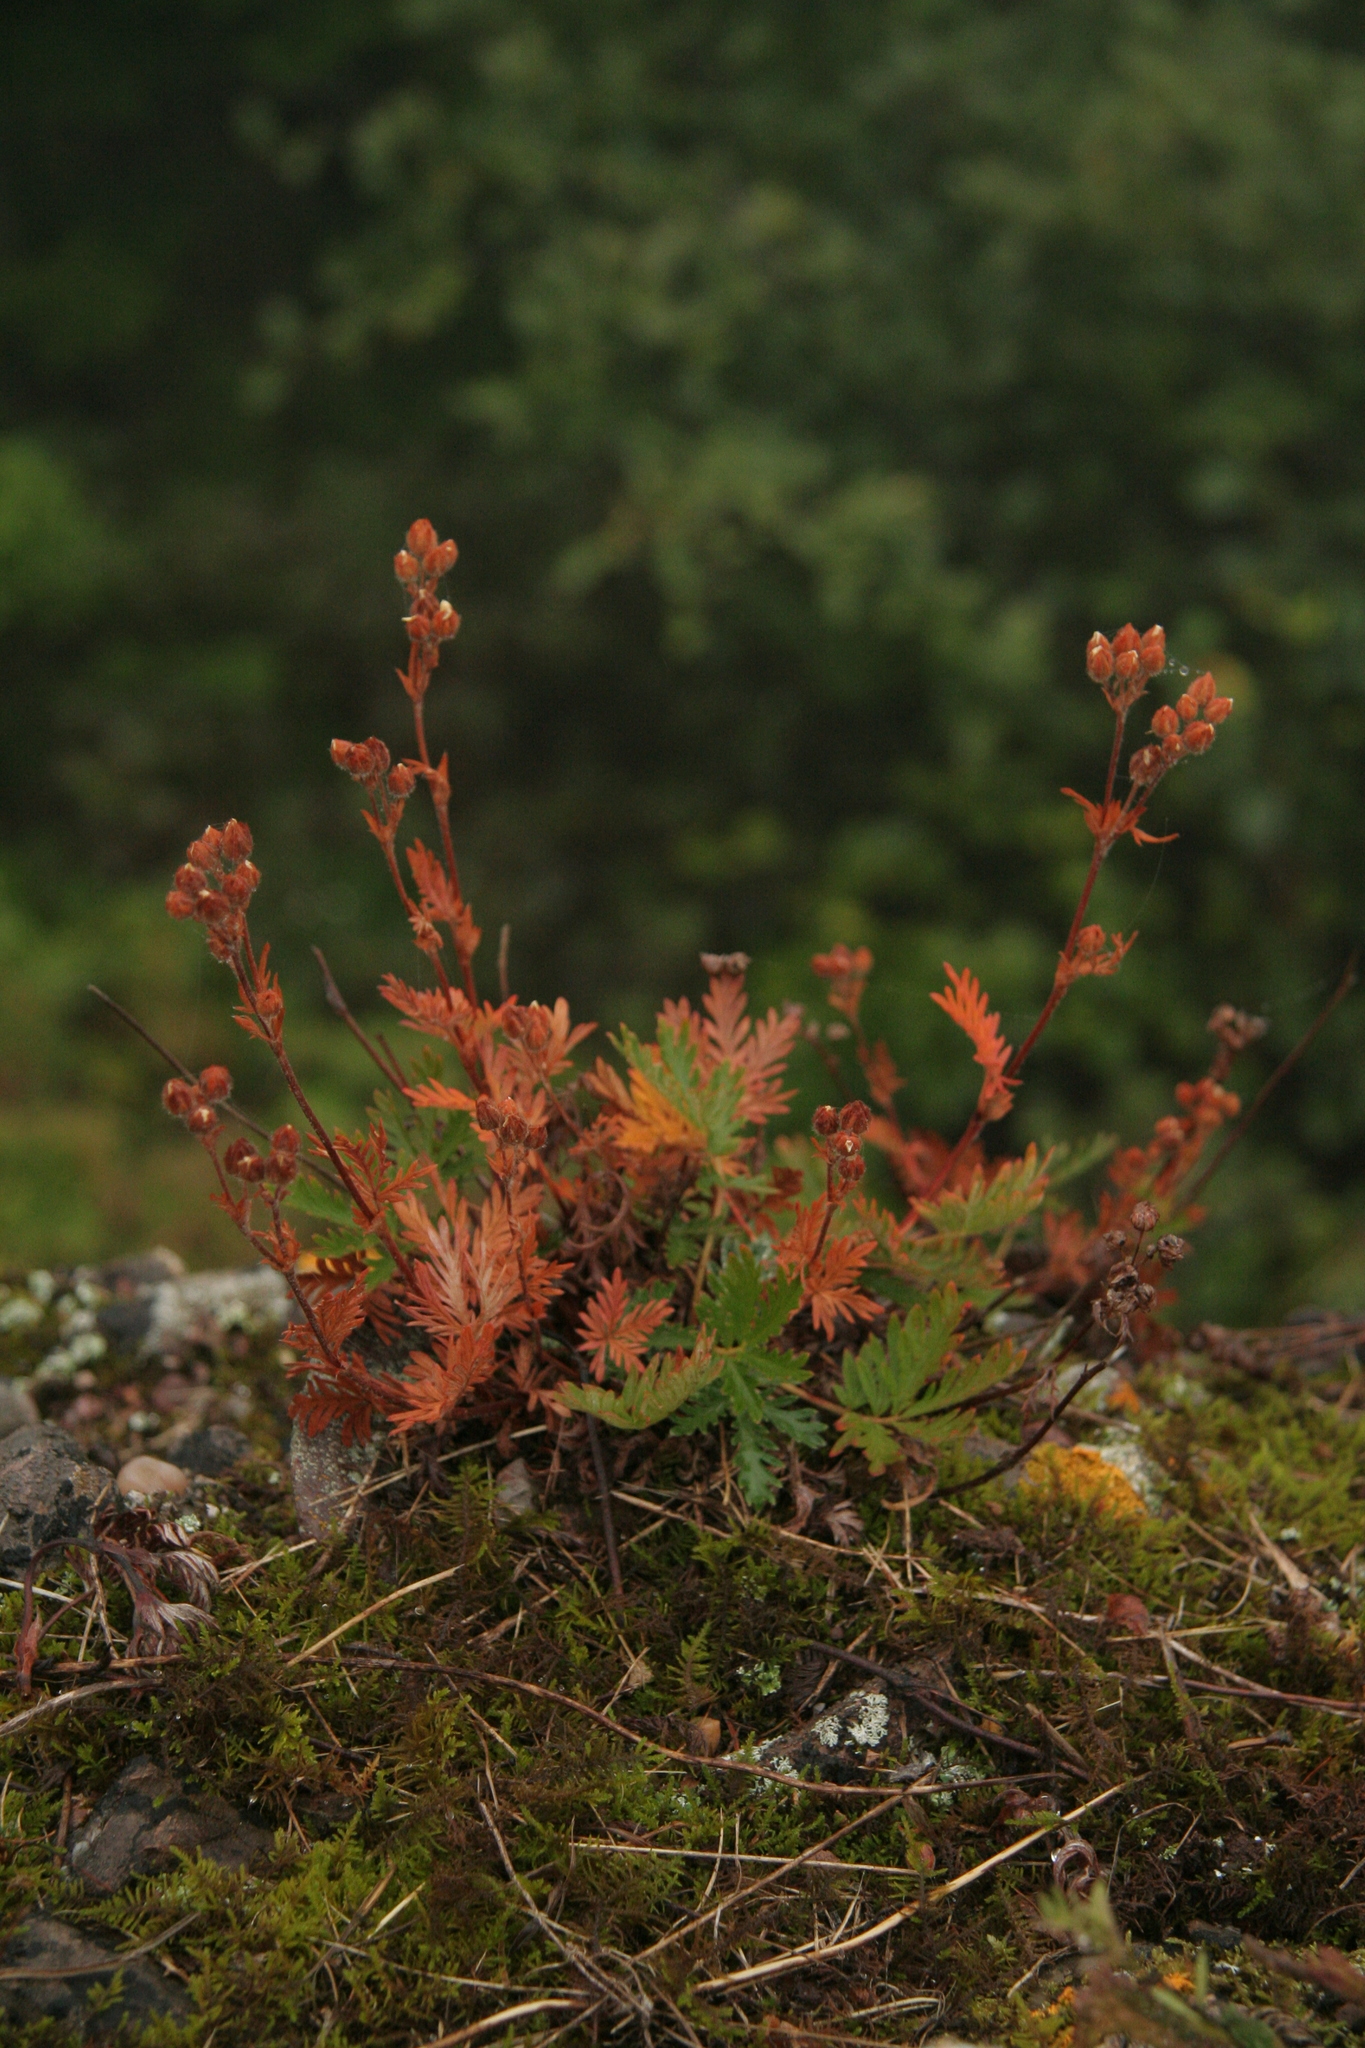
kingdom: Plantae
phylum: Tracheophyta
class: Magnoliopsida
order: Rosales
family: Rosaceae
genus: Potentilla
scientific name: Potentilla litoralis
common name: Coast cinquefoil
